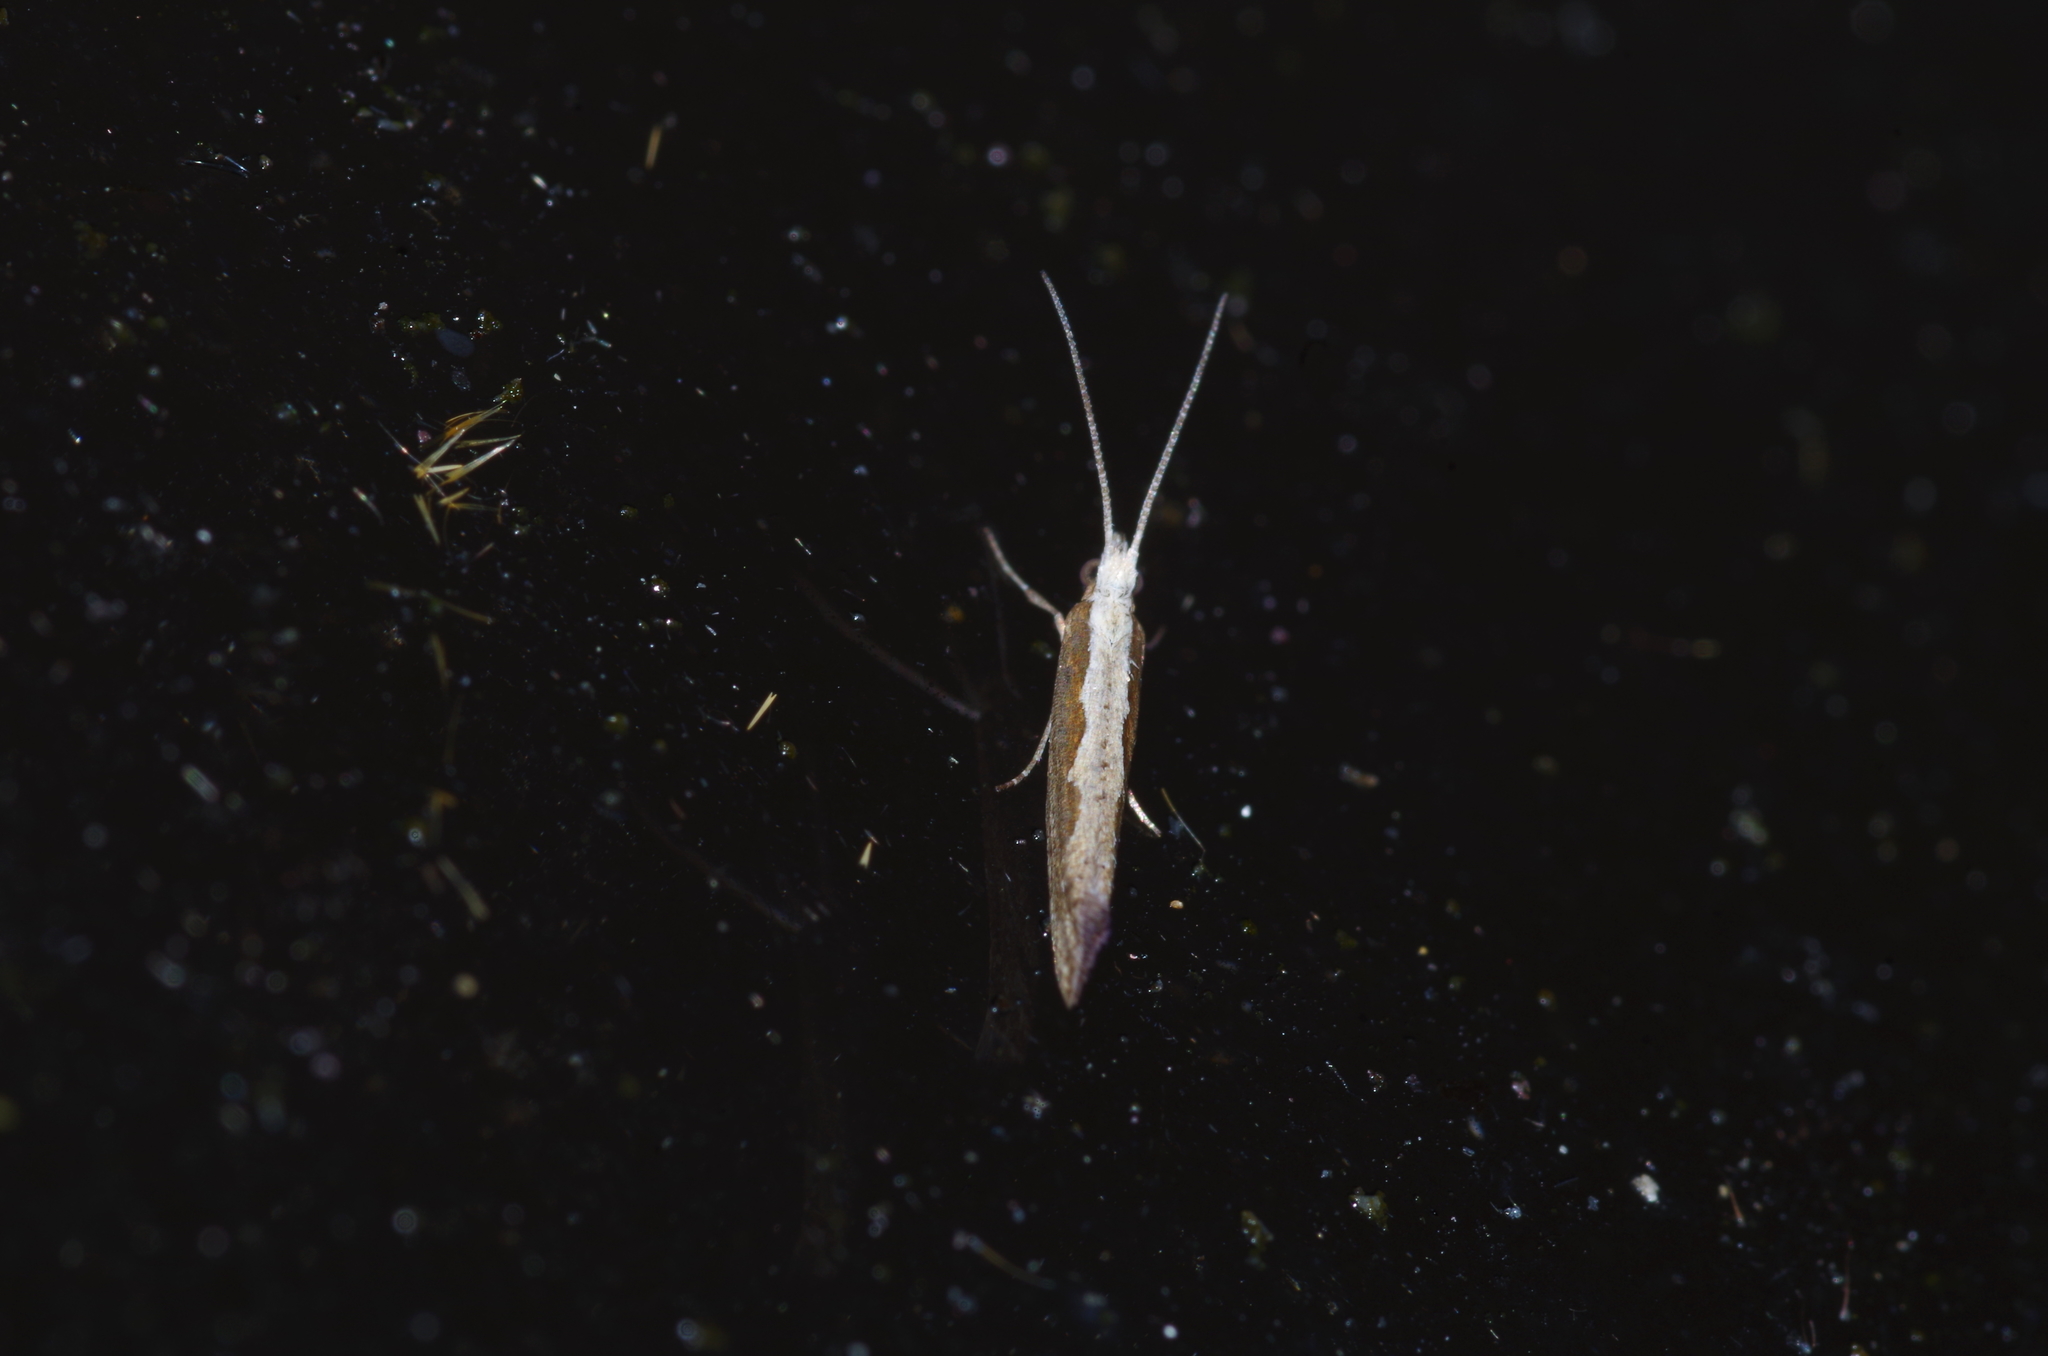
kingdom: Animalia
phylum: Arthropoda
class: Insecta
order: Lepidoptera
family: Plutellidae
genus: Plutella
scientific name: Plutella xylostella
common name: Diamond-back moth
